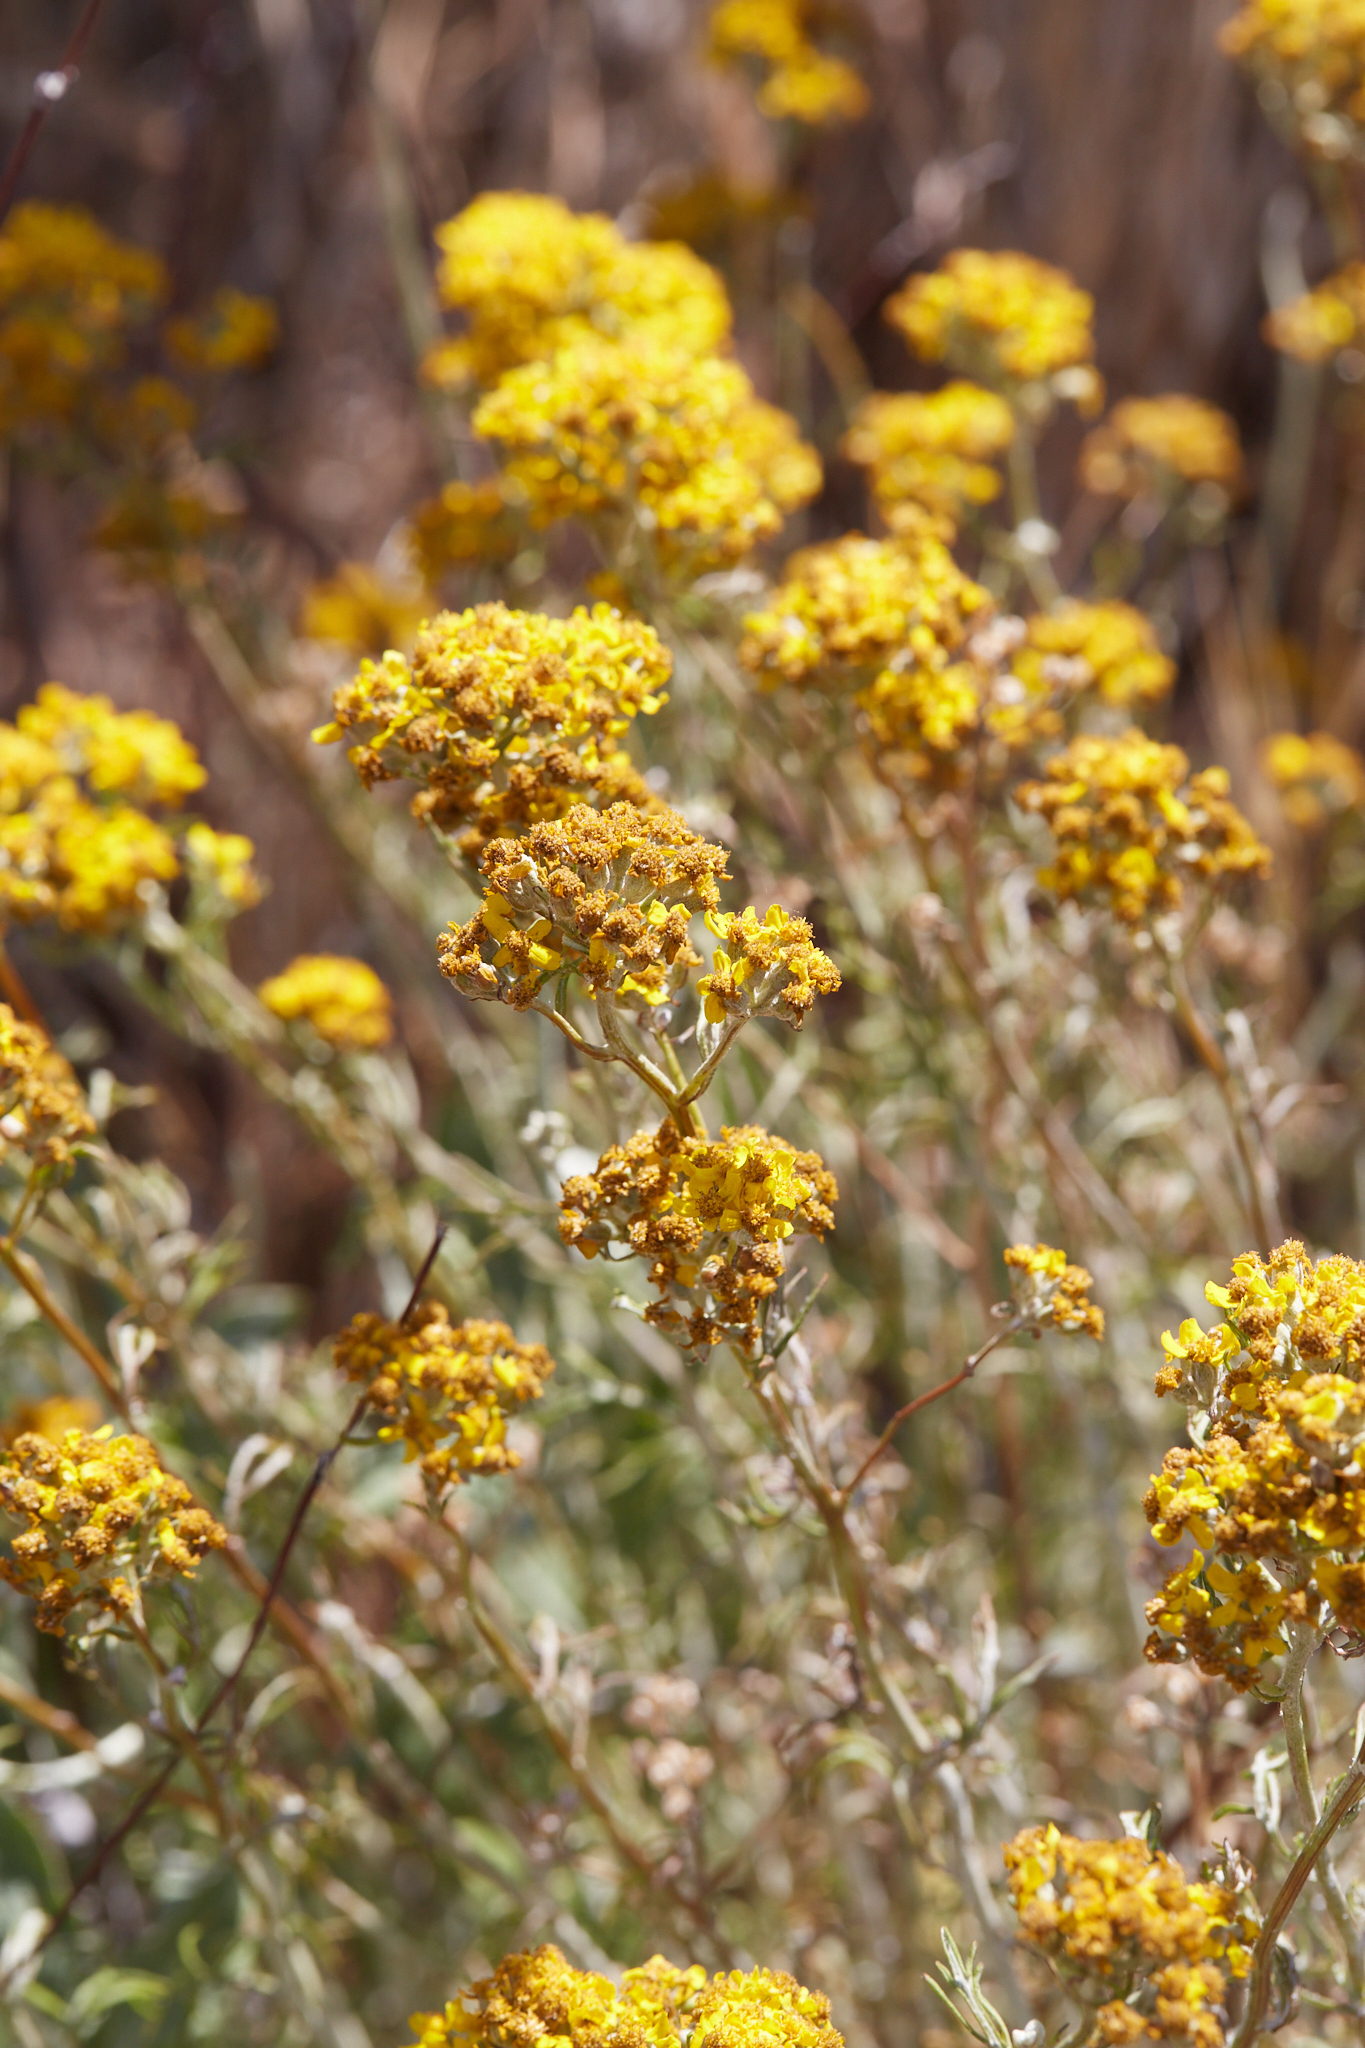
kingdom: Plantae
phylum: Tracheophyta
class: Magnoliopsida
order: Asterales
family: Asteraceae
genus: Eriophyllum
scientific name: Eriophyllum confertiflorum
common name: Golden-yarrow
